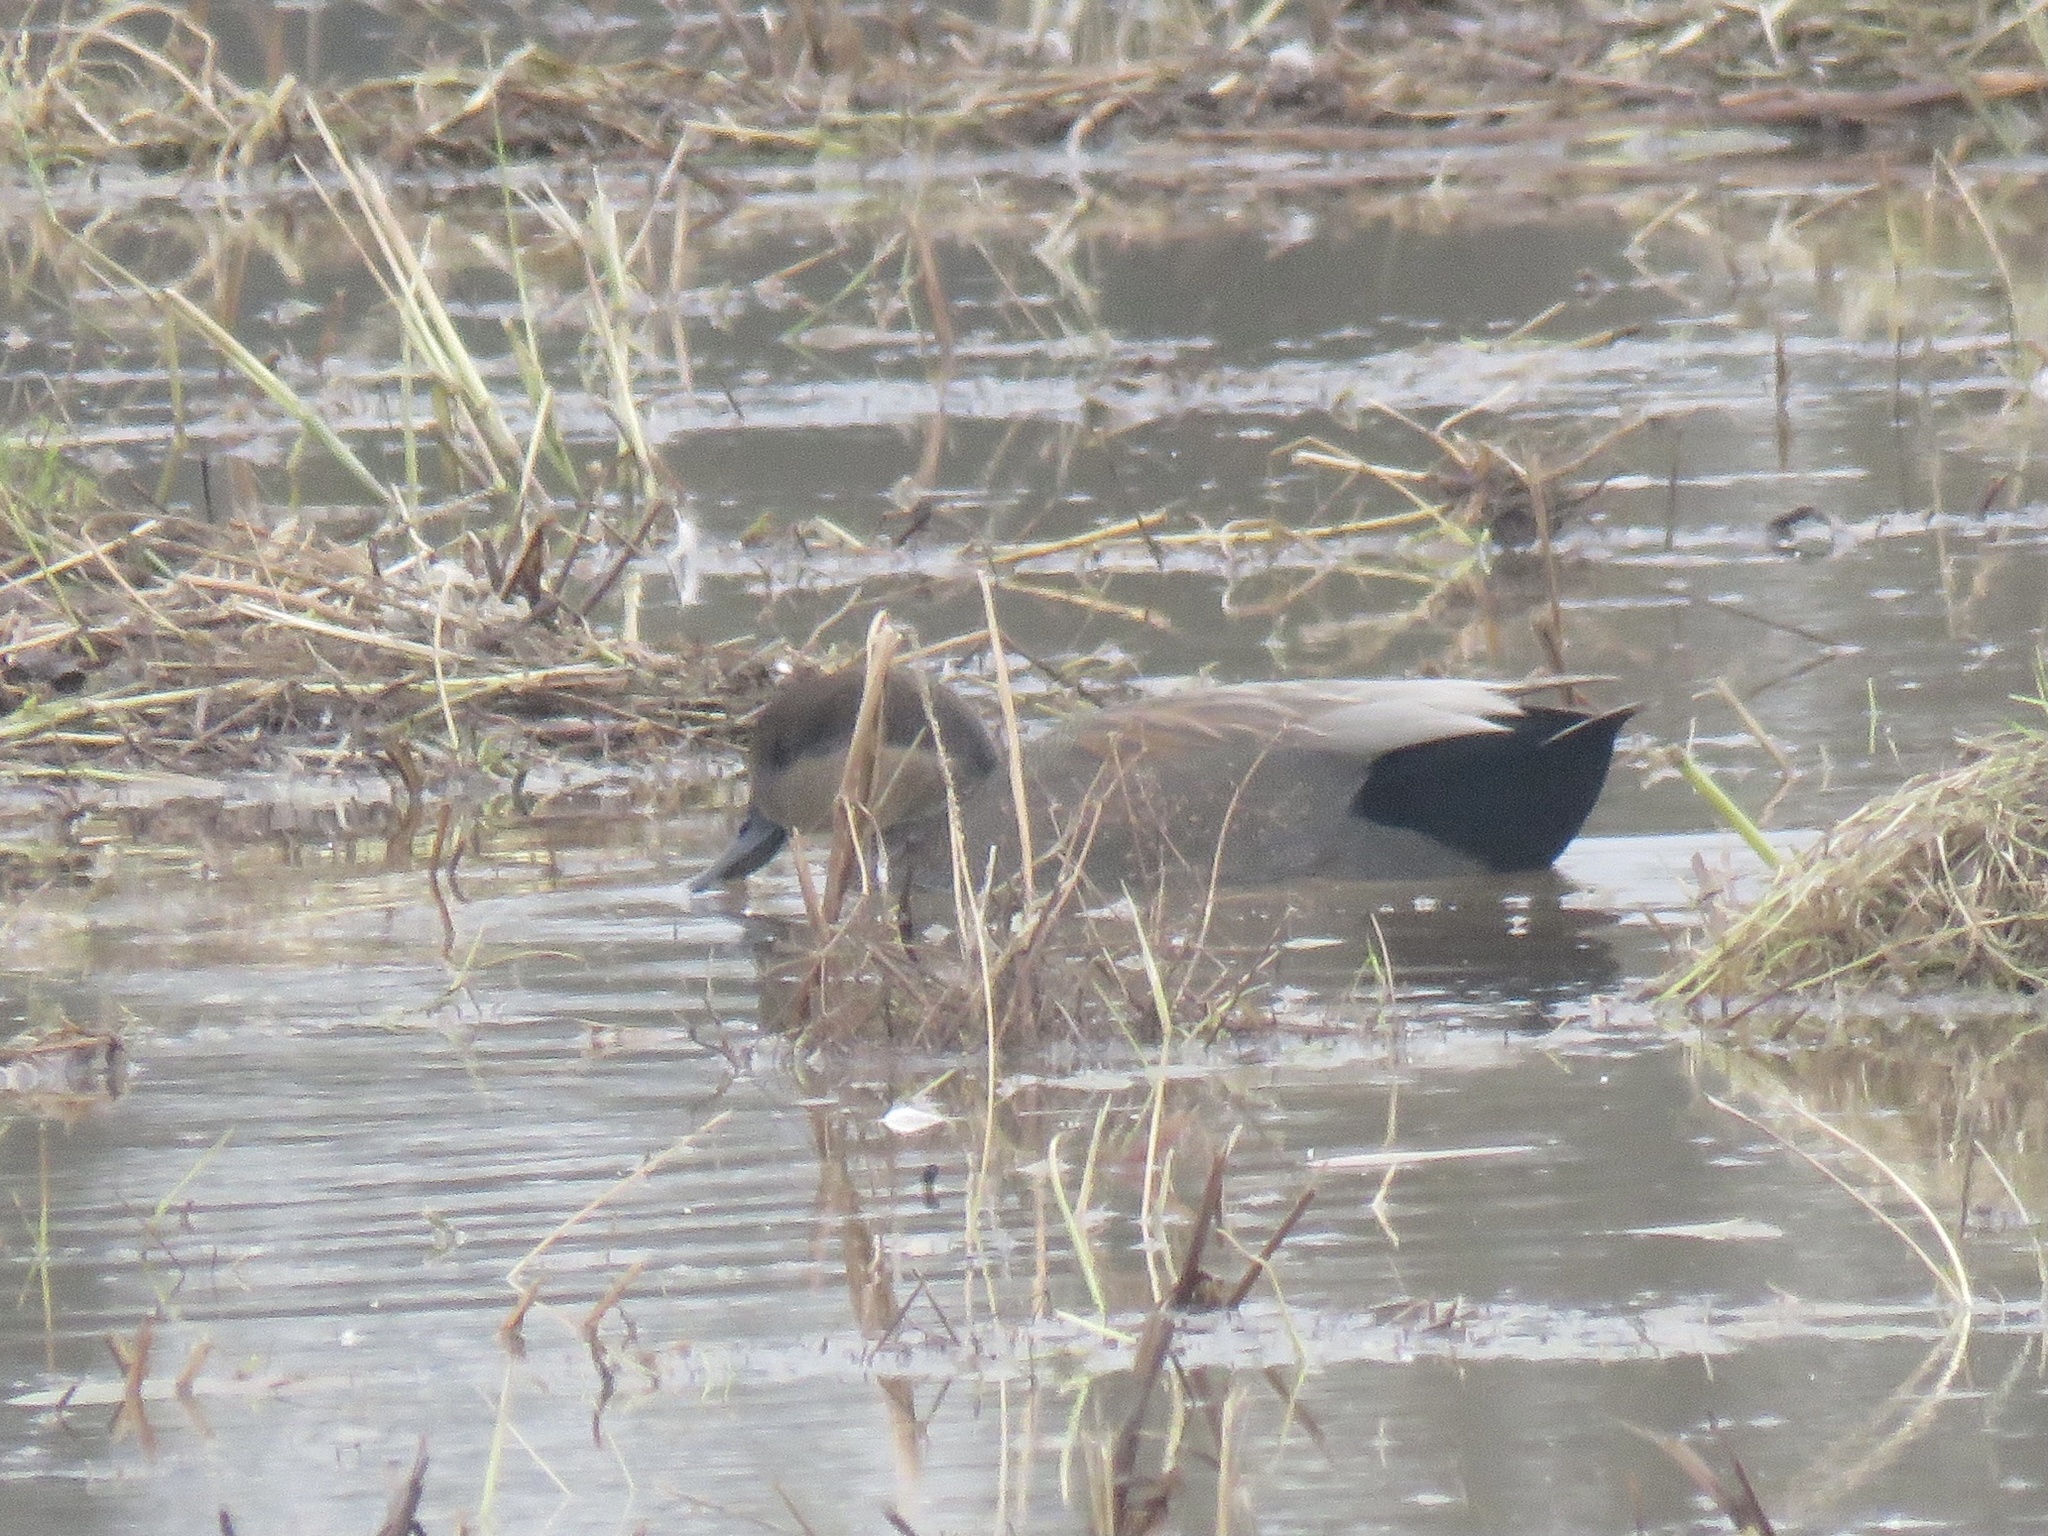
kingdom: Animalia
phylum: Chordata
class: Aves
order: Anseriformes
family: Anatidae
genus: Mareca
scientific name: Mareca strepera
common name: Gadwall
